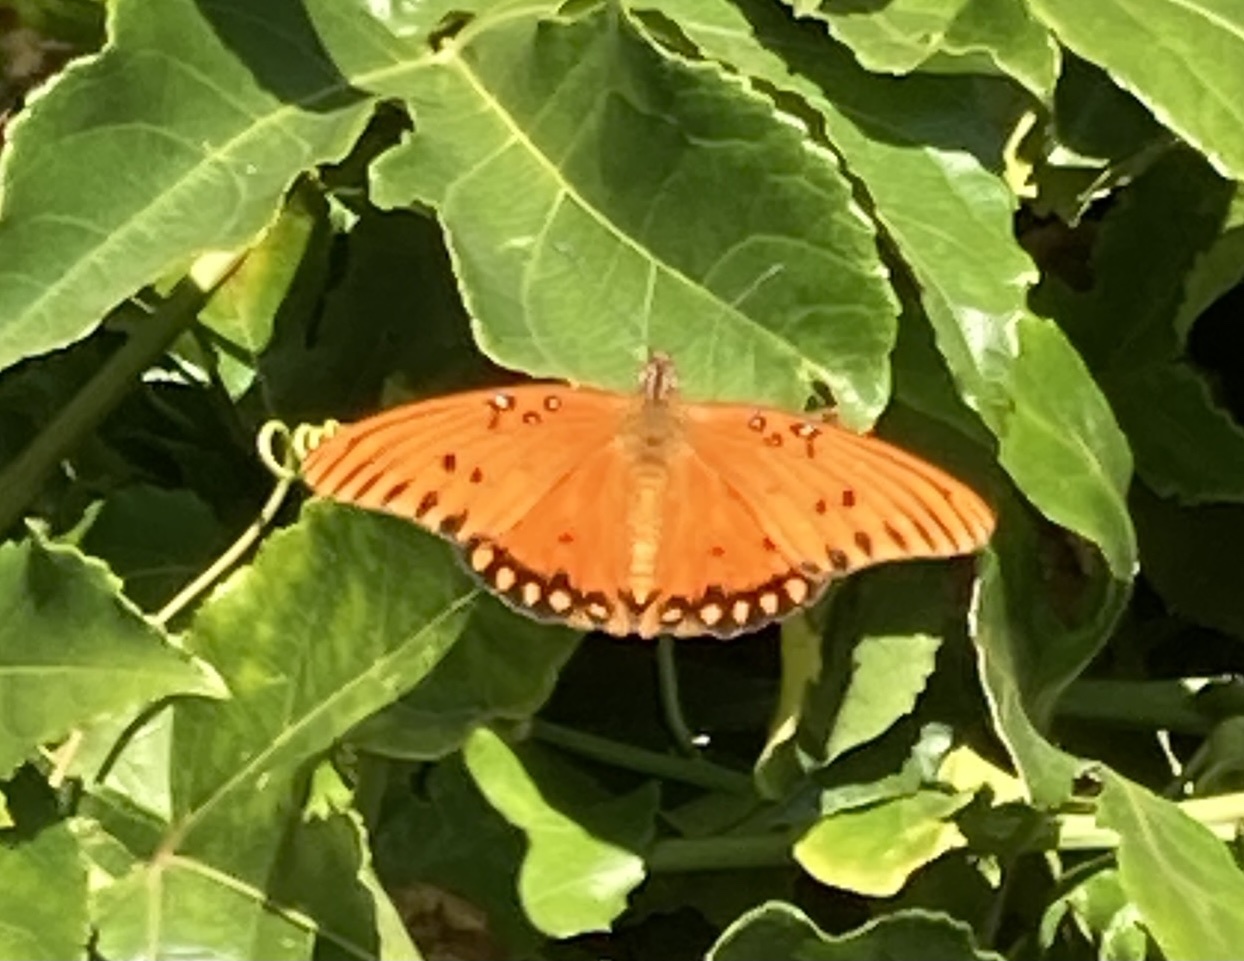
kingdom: Animalia
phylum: Arthropoda
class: Insecta
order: Lepidoptera
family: Nymphalidae
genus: Dione
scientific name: Dione vanillae
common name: Gulf fritillary
